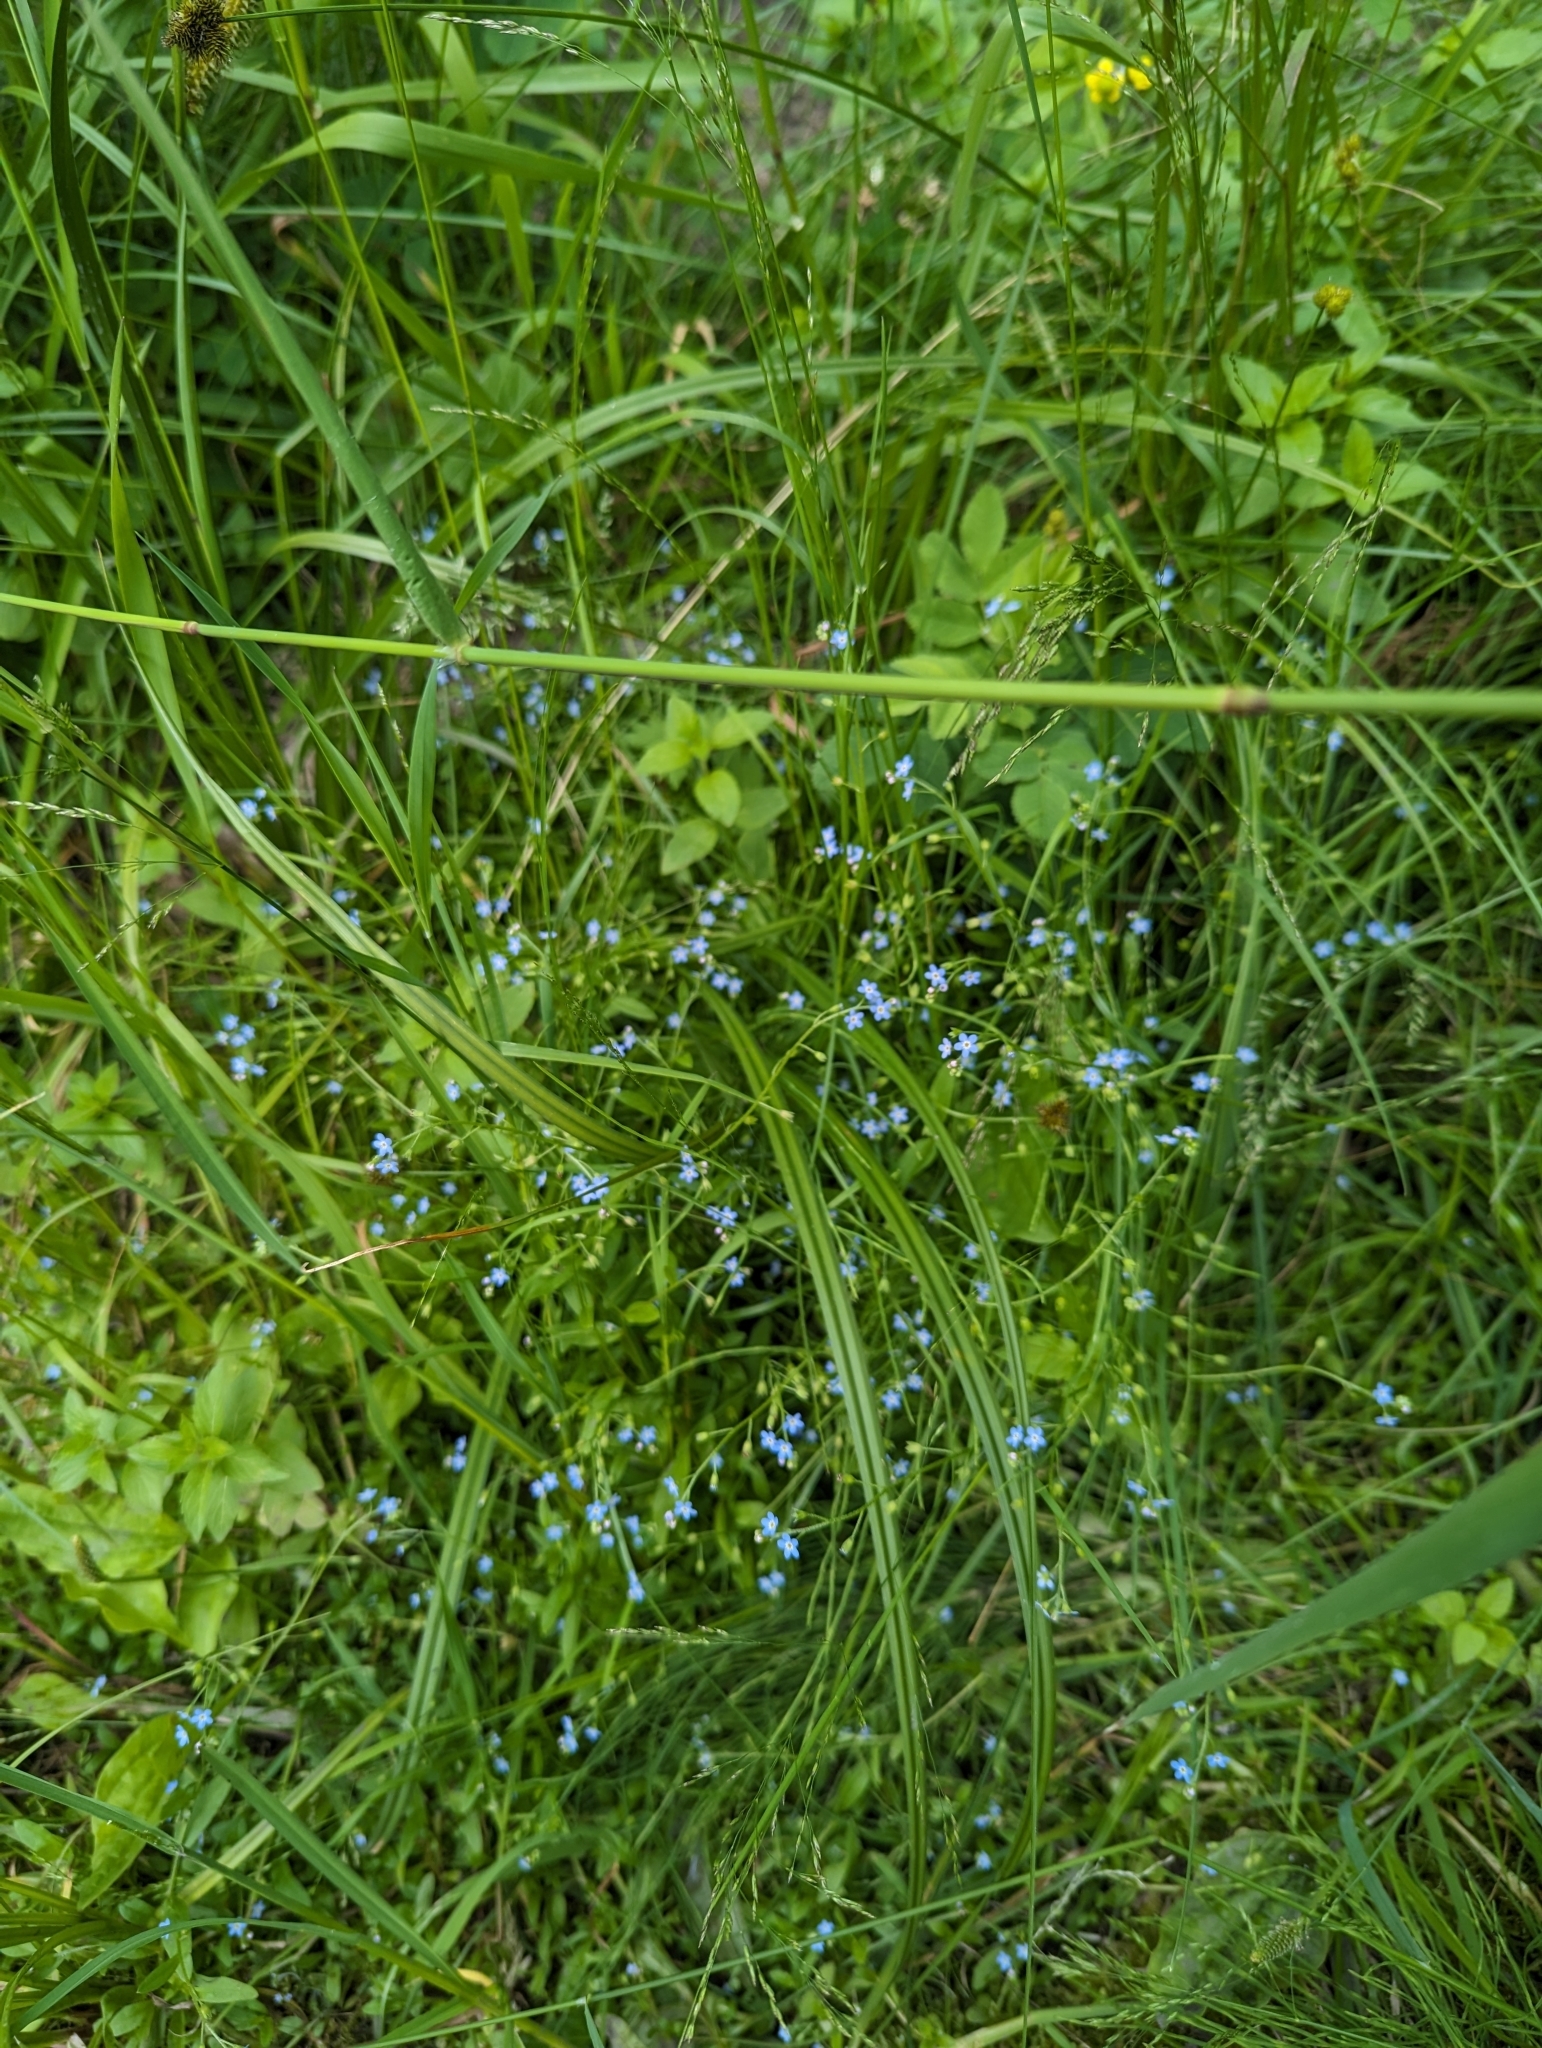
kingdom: Plantae
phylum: Tracheophyta
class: Magnoliopsida
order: Boraginales
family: Boraginaceae
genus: Myosotis
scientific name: Myosotis laxa
